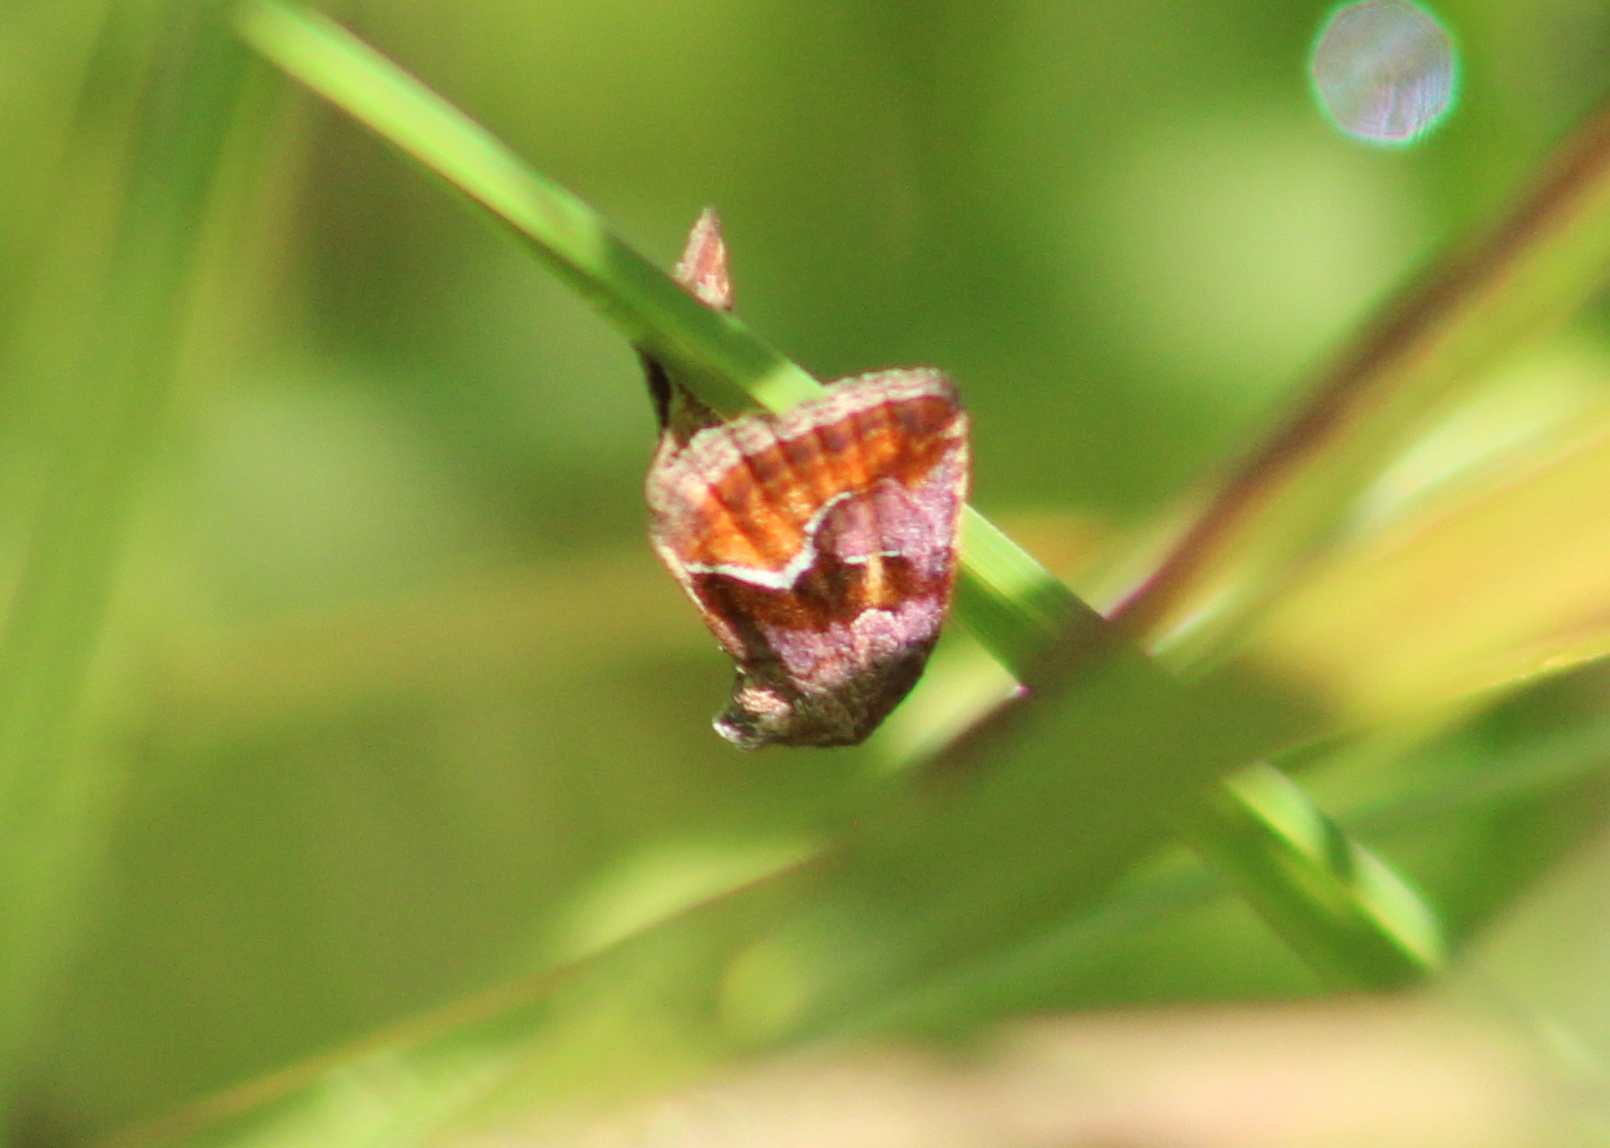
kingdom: Animalia
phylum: Arthropoda
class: Insecta
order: Lepidoptera
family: Noctuidae
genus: Deltote
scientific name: Deltote bellicula
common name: Bog glyph
